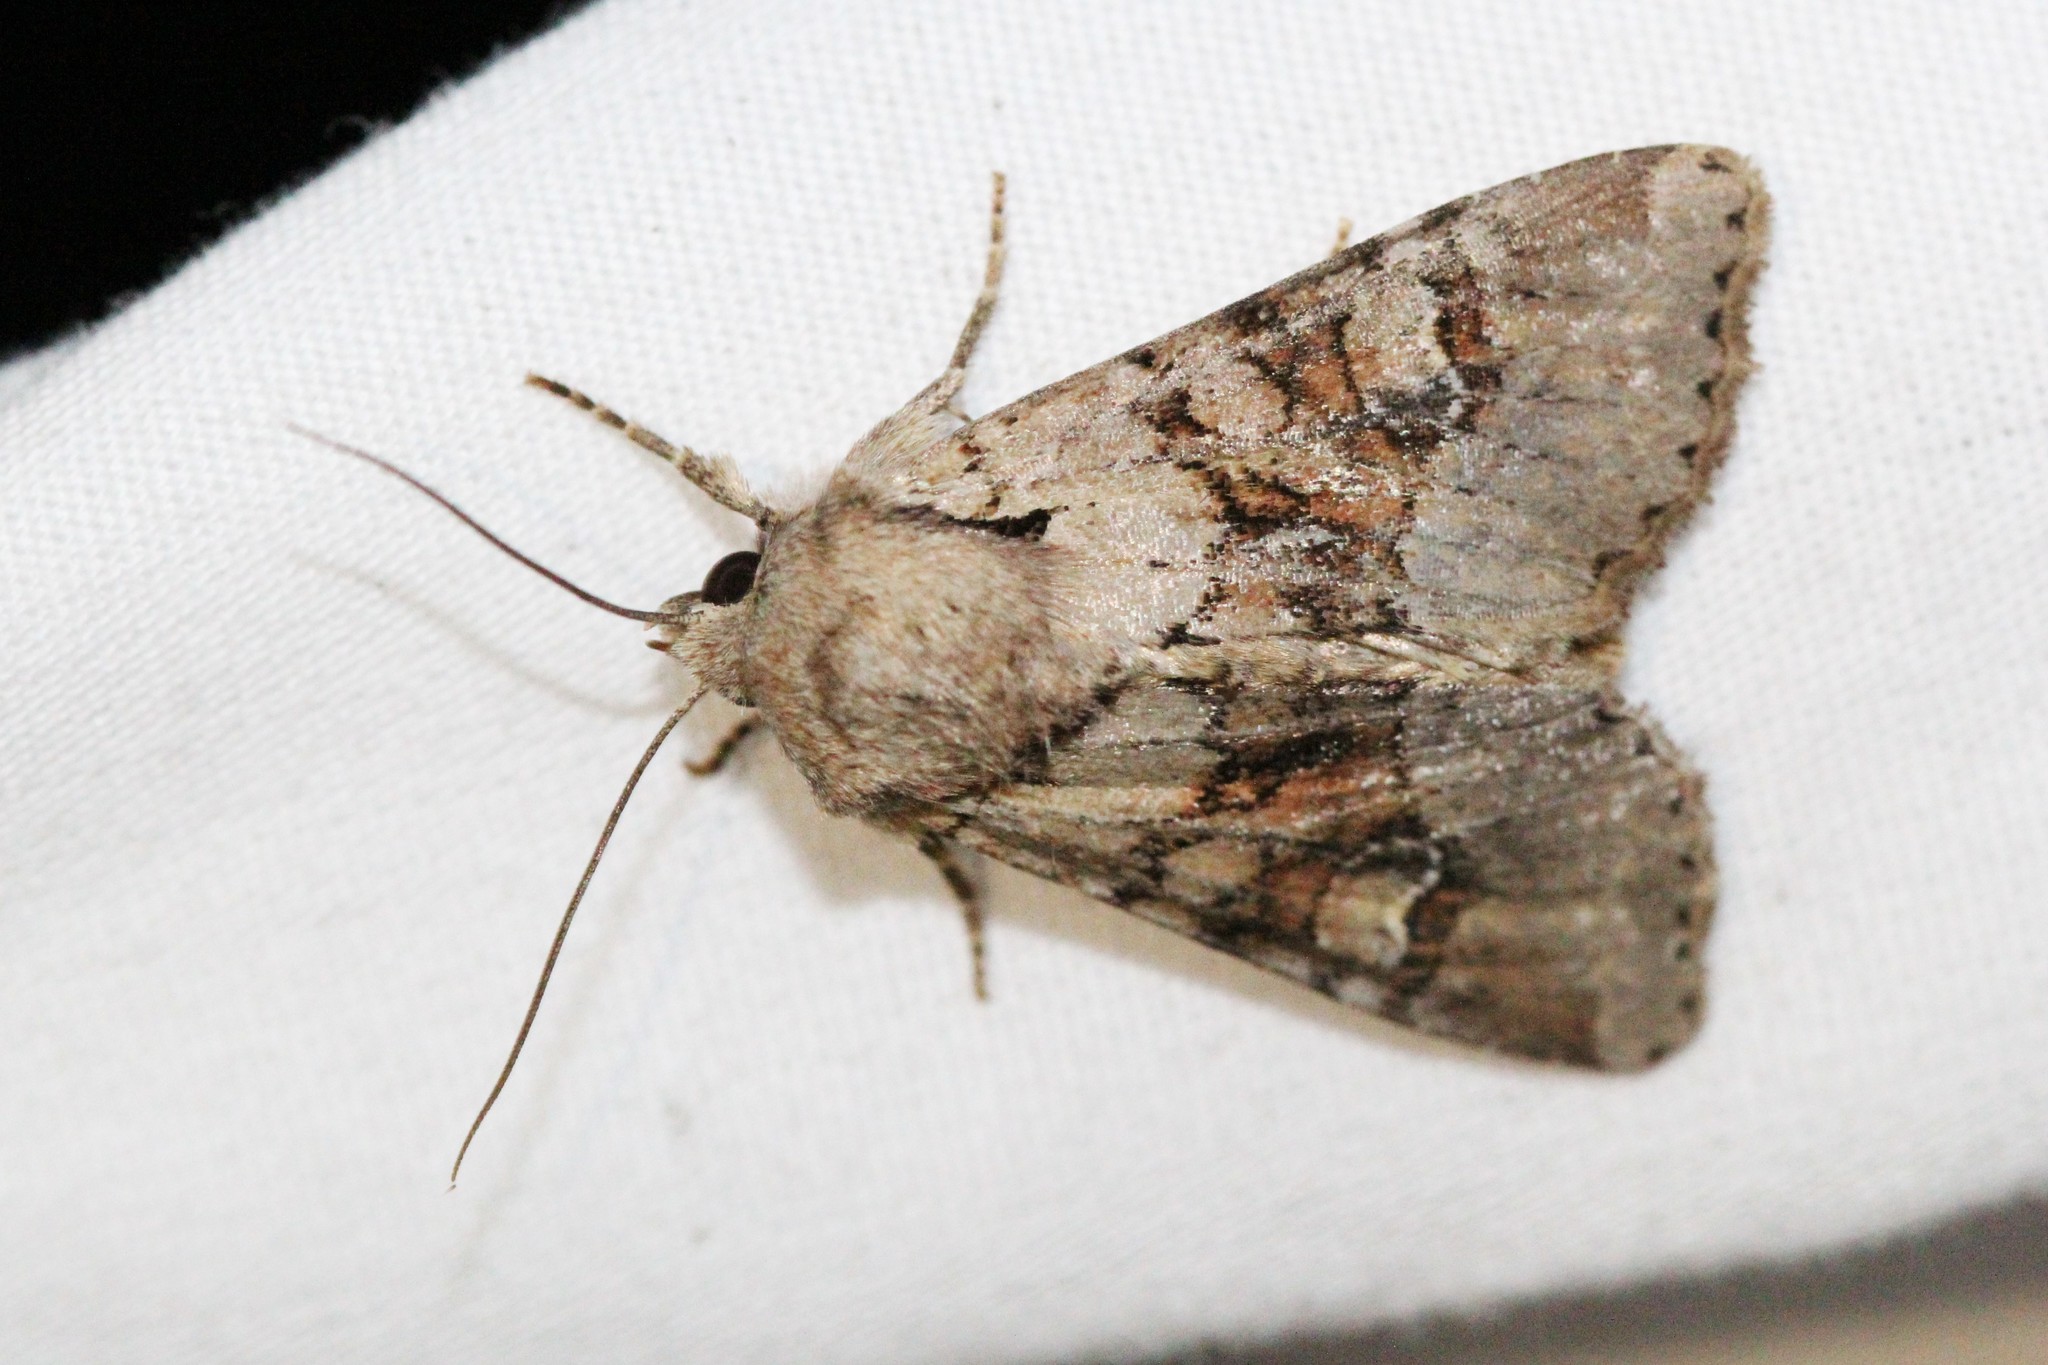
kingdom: Animalia
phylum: Arthropoda
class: Insecta
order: Lepidoptera
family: Noctuidae
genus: Apamea
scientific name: Apamea sordens
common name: Rustic shoulder-knot
